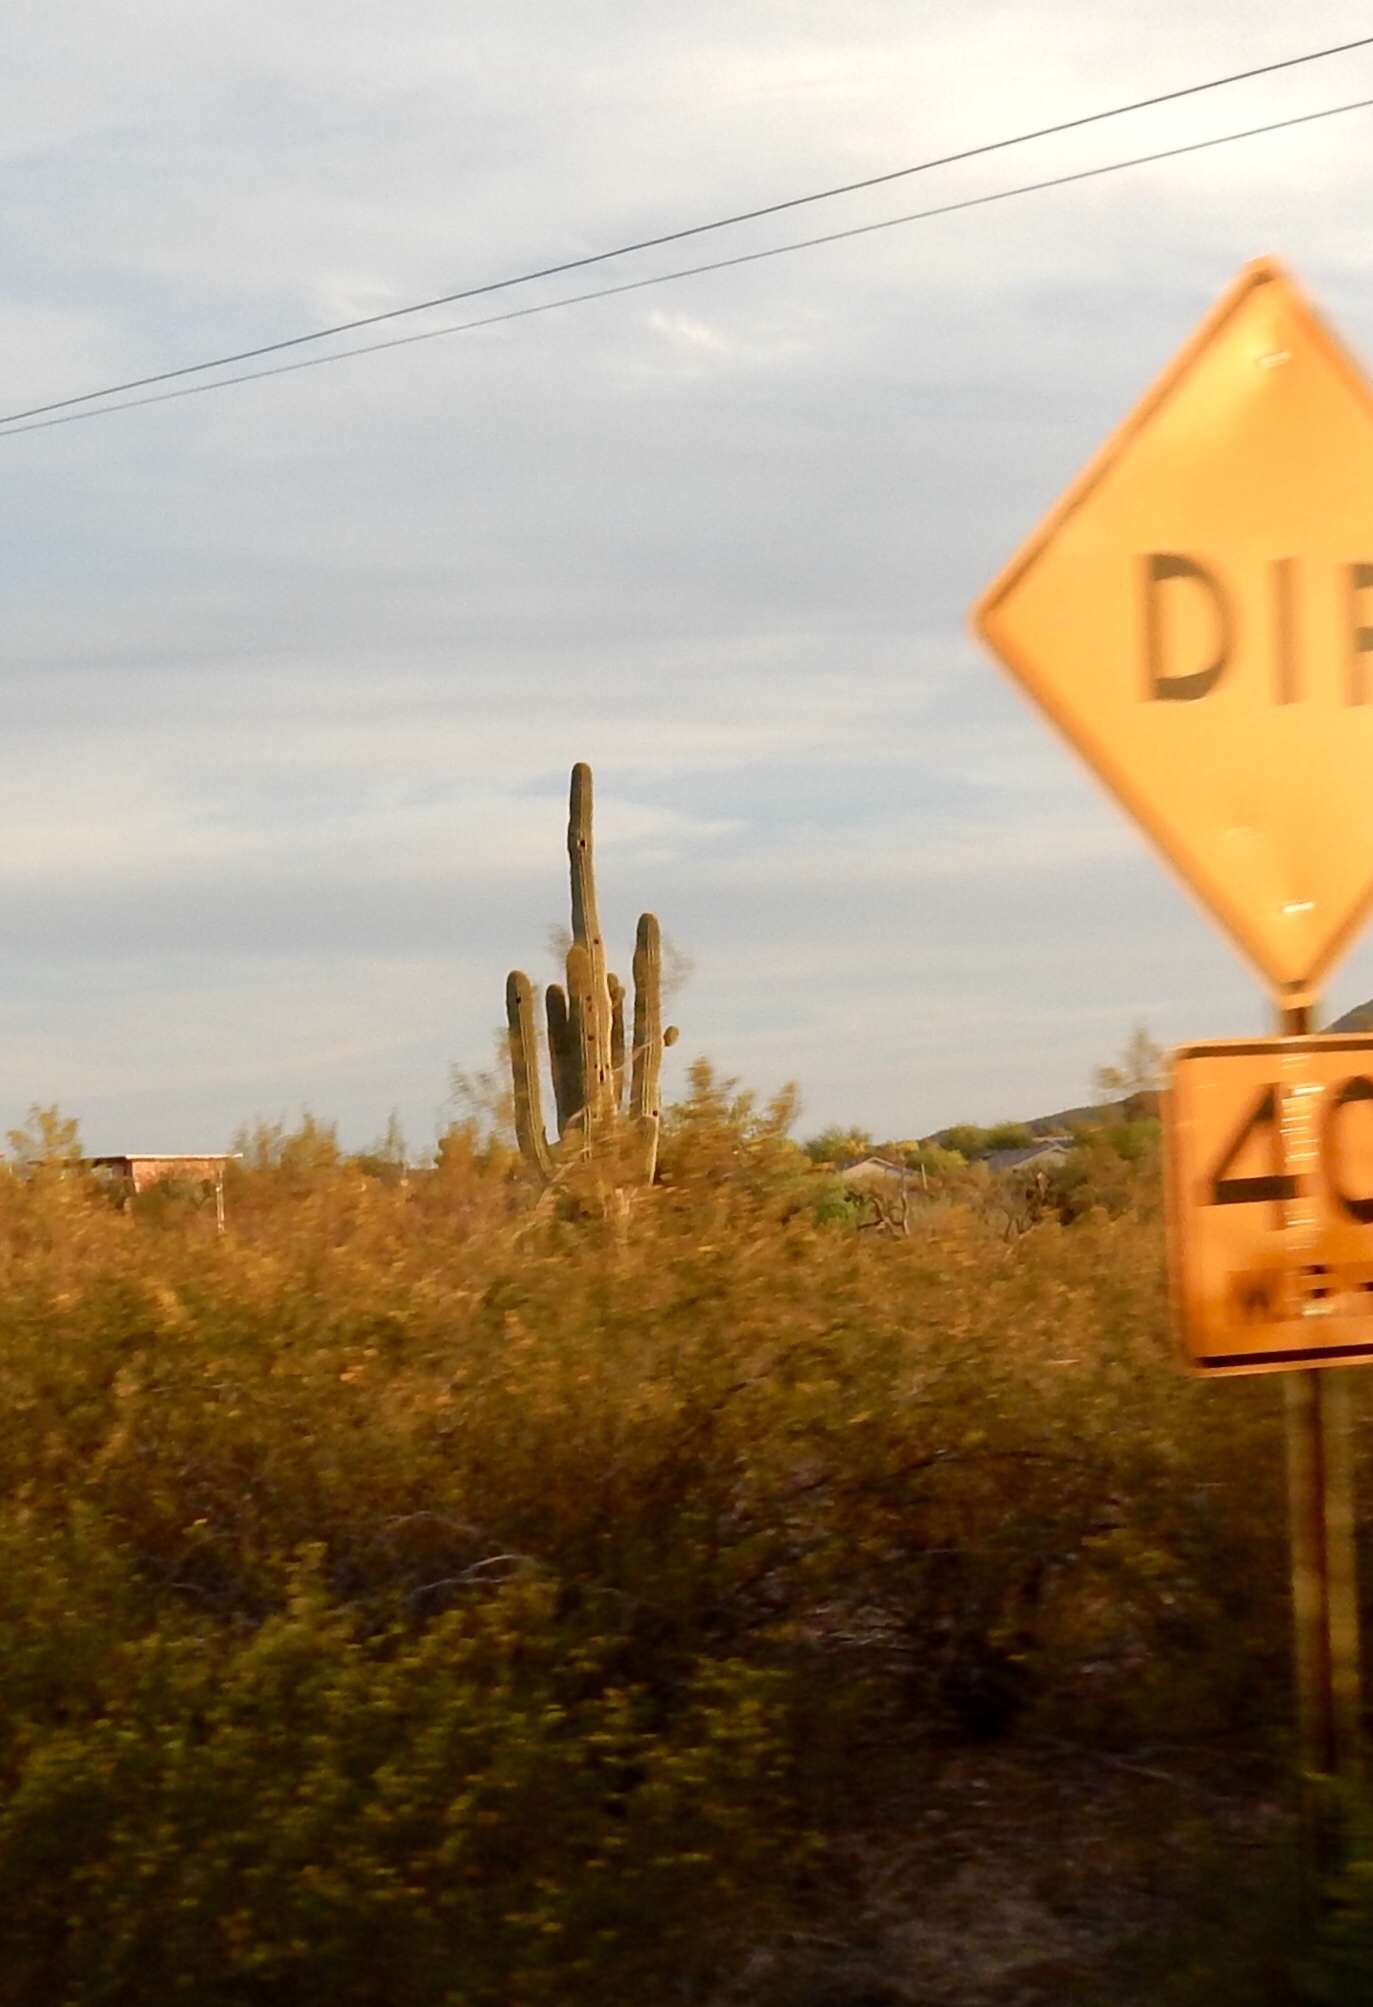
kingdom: Plantae
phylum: Tracheophyta
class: Magnoliopsida
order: Caryophyllales
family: Cactaceae
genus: Carnegiea
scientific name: Carnegiea gigantea
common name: Saguaro
